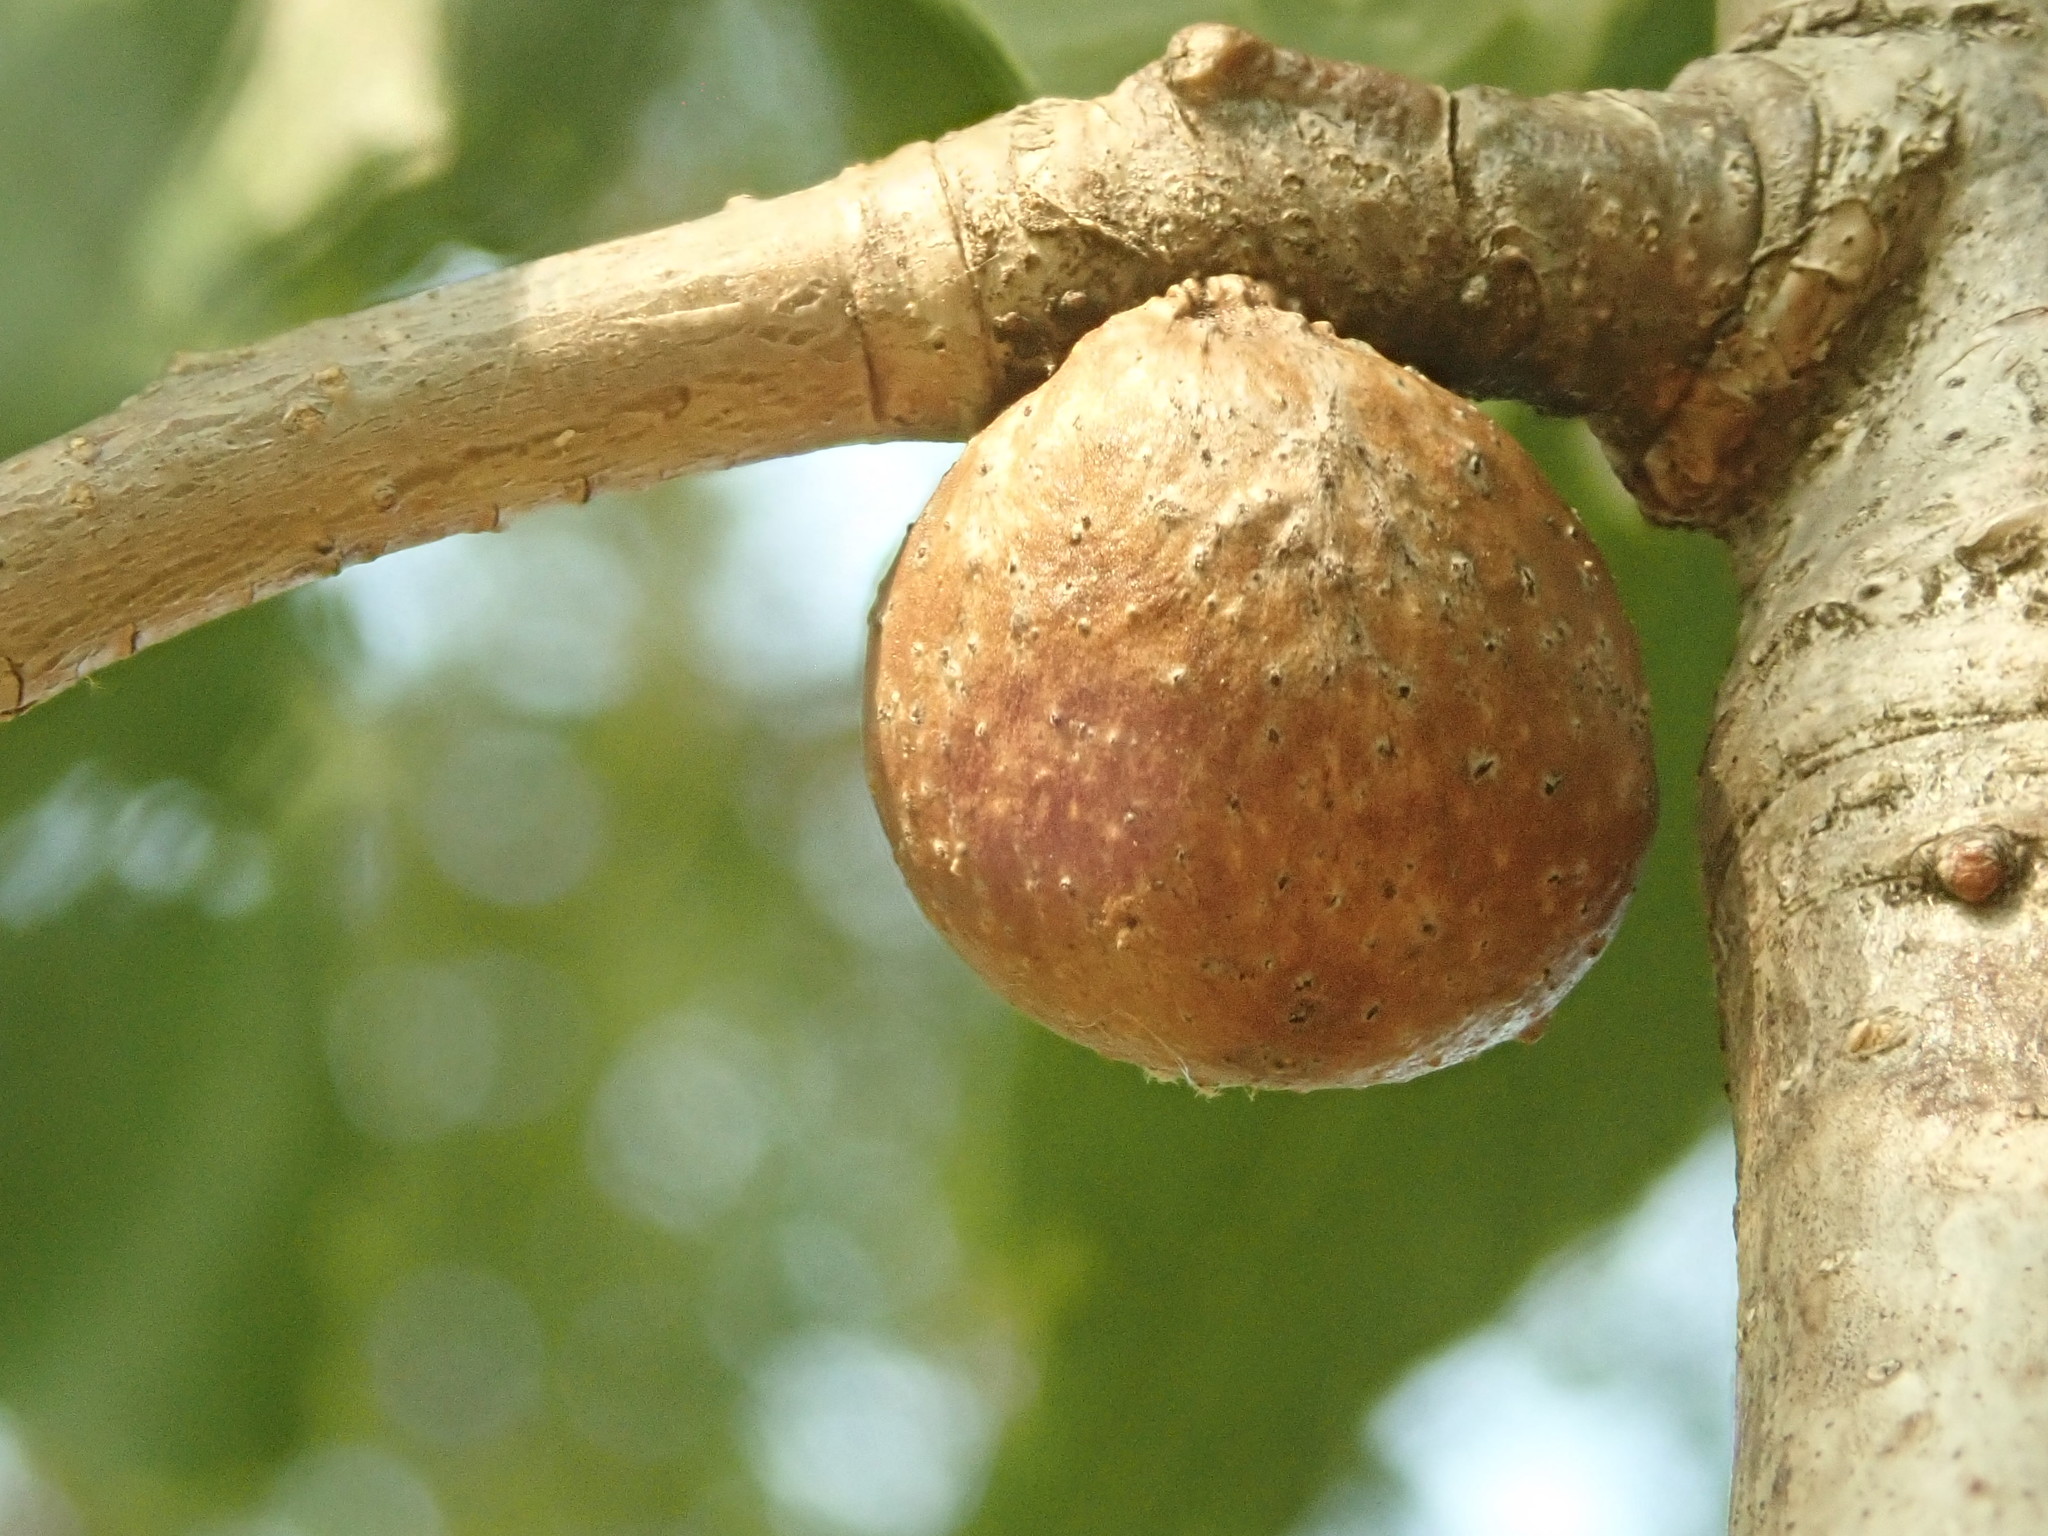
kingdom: Animalia
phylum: Arthropoda
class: Insecta
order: Hymenoptera
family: Cynipidae
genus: Disholcaspis
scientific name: Disholcaspis quercusglobulus
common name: Round bullet gall wasp
